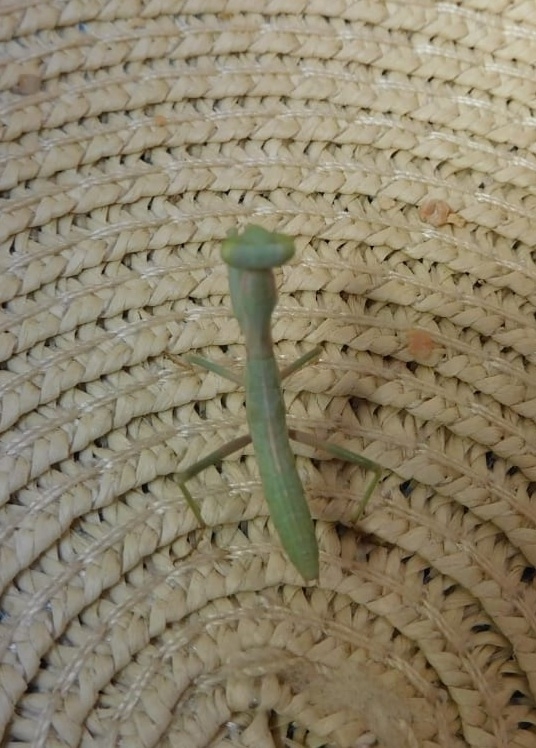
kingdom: Animalia
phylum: Arthropoda
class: Insecta
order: Mantodea
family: Eremiaphilidae
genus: Iris
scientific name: Iris oratoria
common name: Mediterranean mantis
